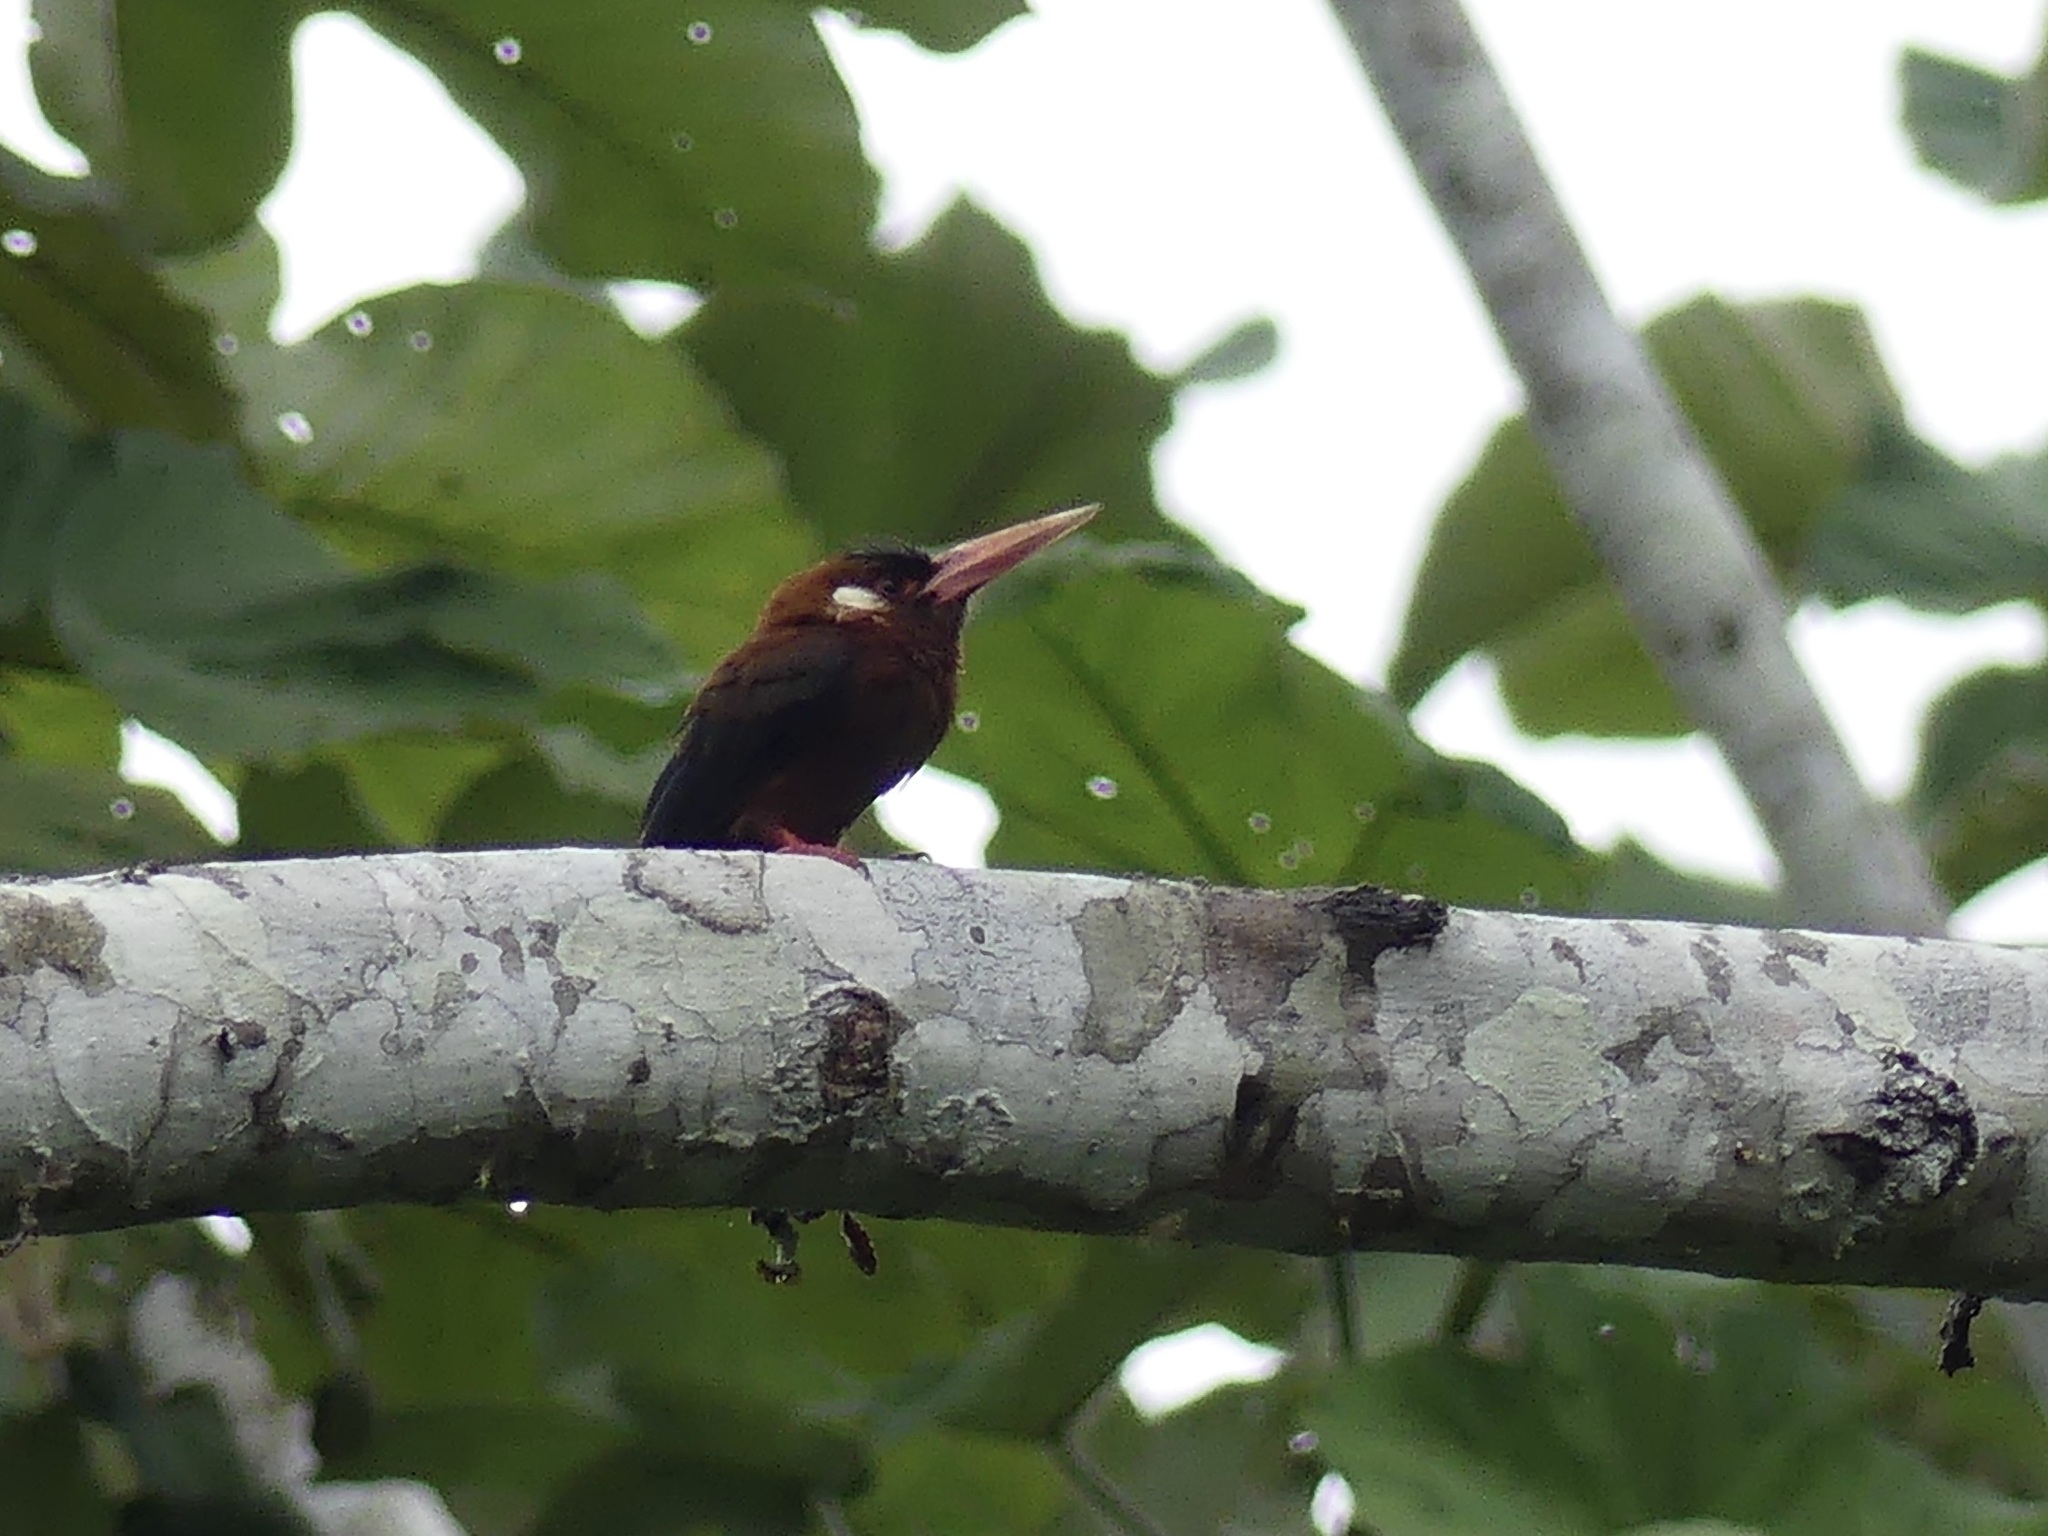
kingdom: Animalia
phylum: Chordata
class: Aves
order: Piciformes
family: Galbulidae
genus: Galbalcyrhynchus
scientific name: Galbalcyrhynchus leucotis
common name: White-eared jacamar
